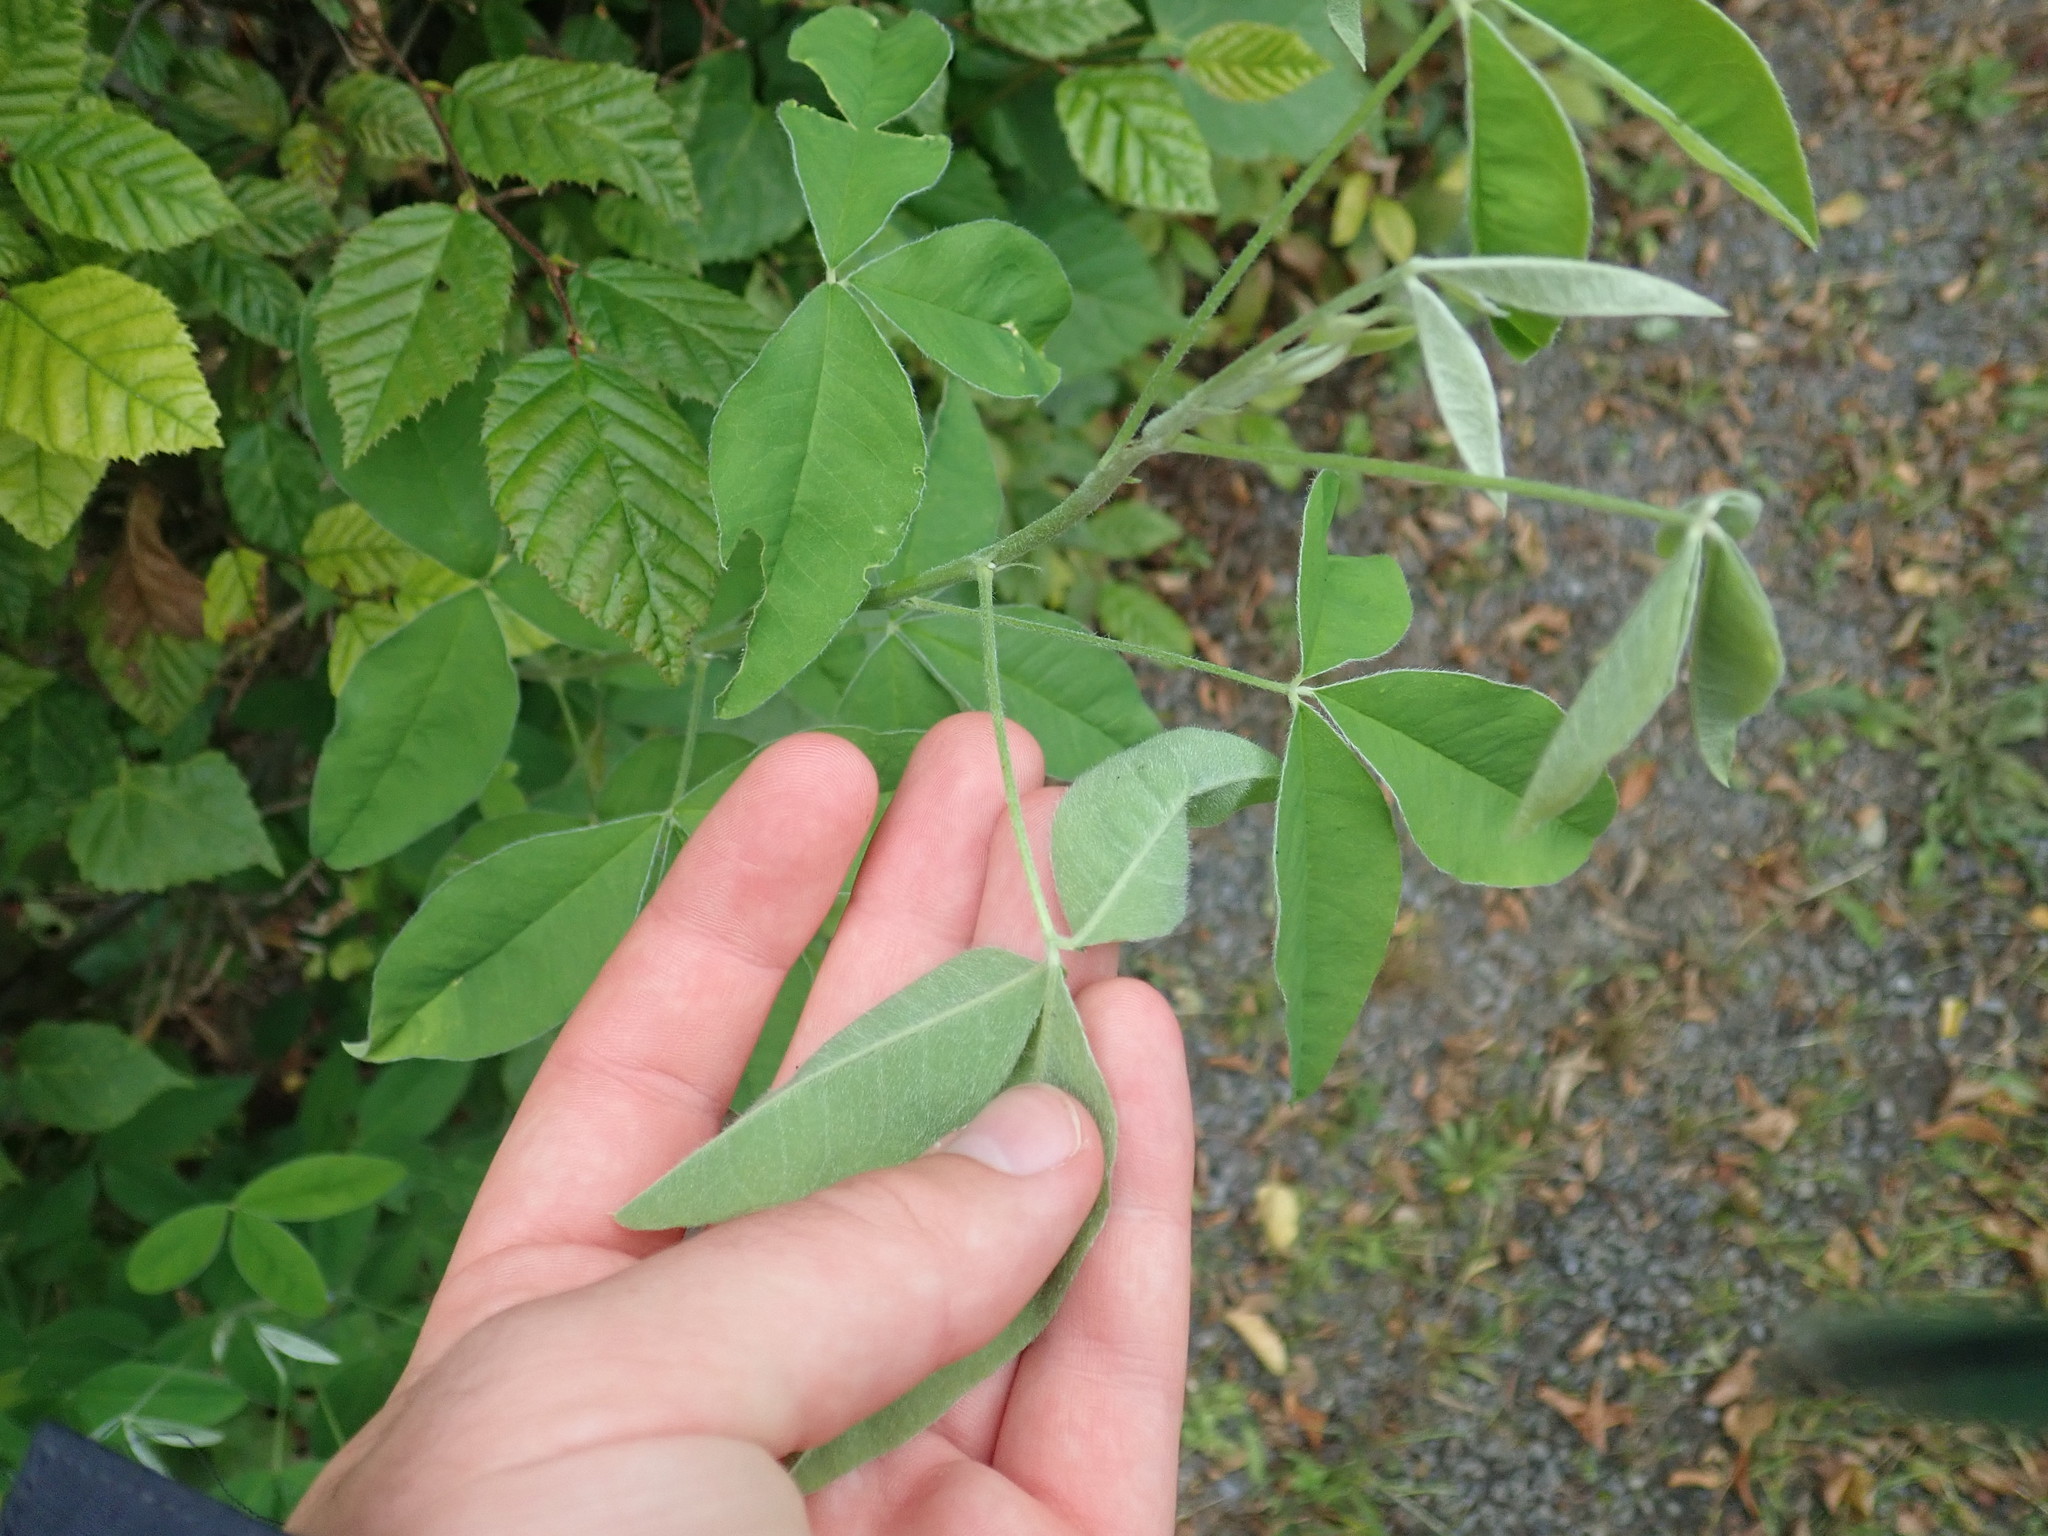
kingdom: Plantae
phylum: Tracheophyta
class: Magnoliopsida
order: Fabales
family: Fabaceae
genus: Laburnum
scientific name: Laburnum anagyroides
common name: Laburnum
